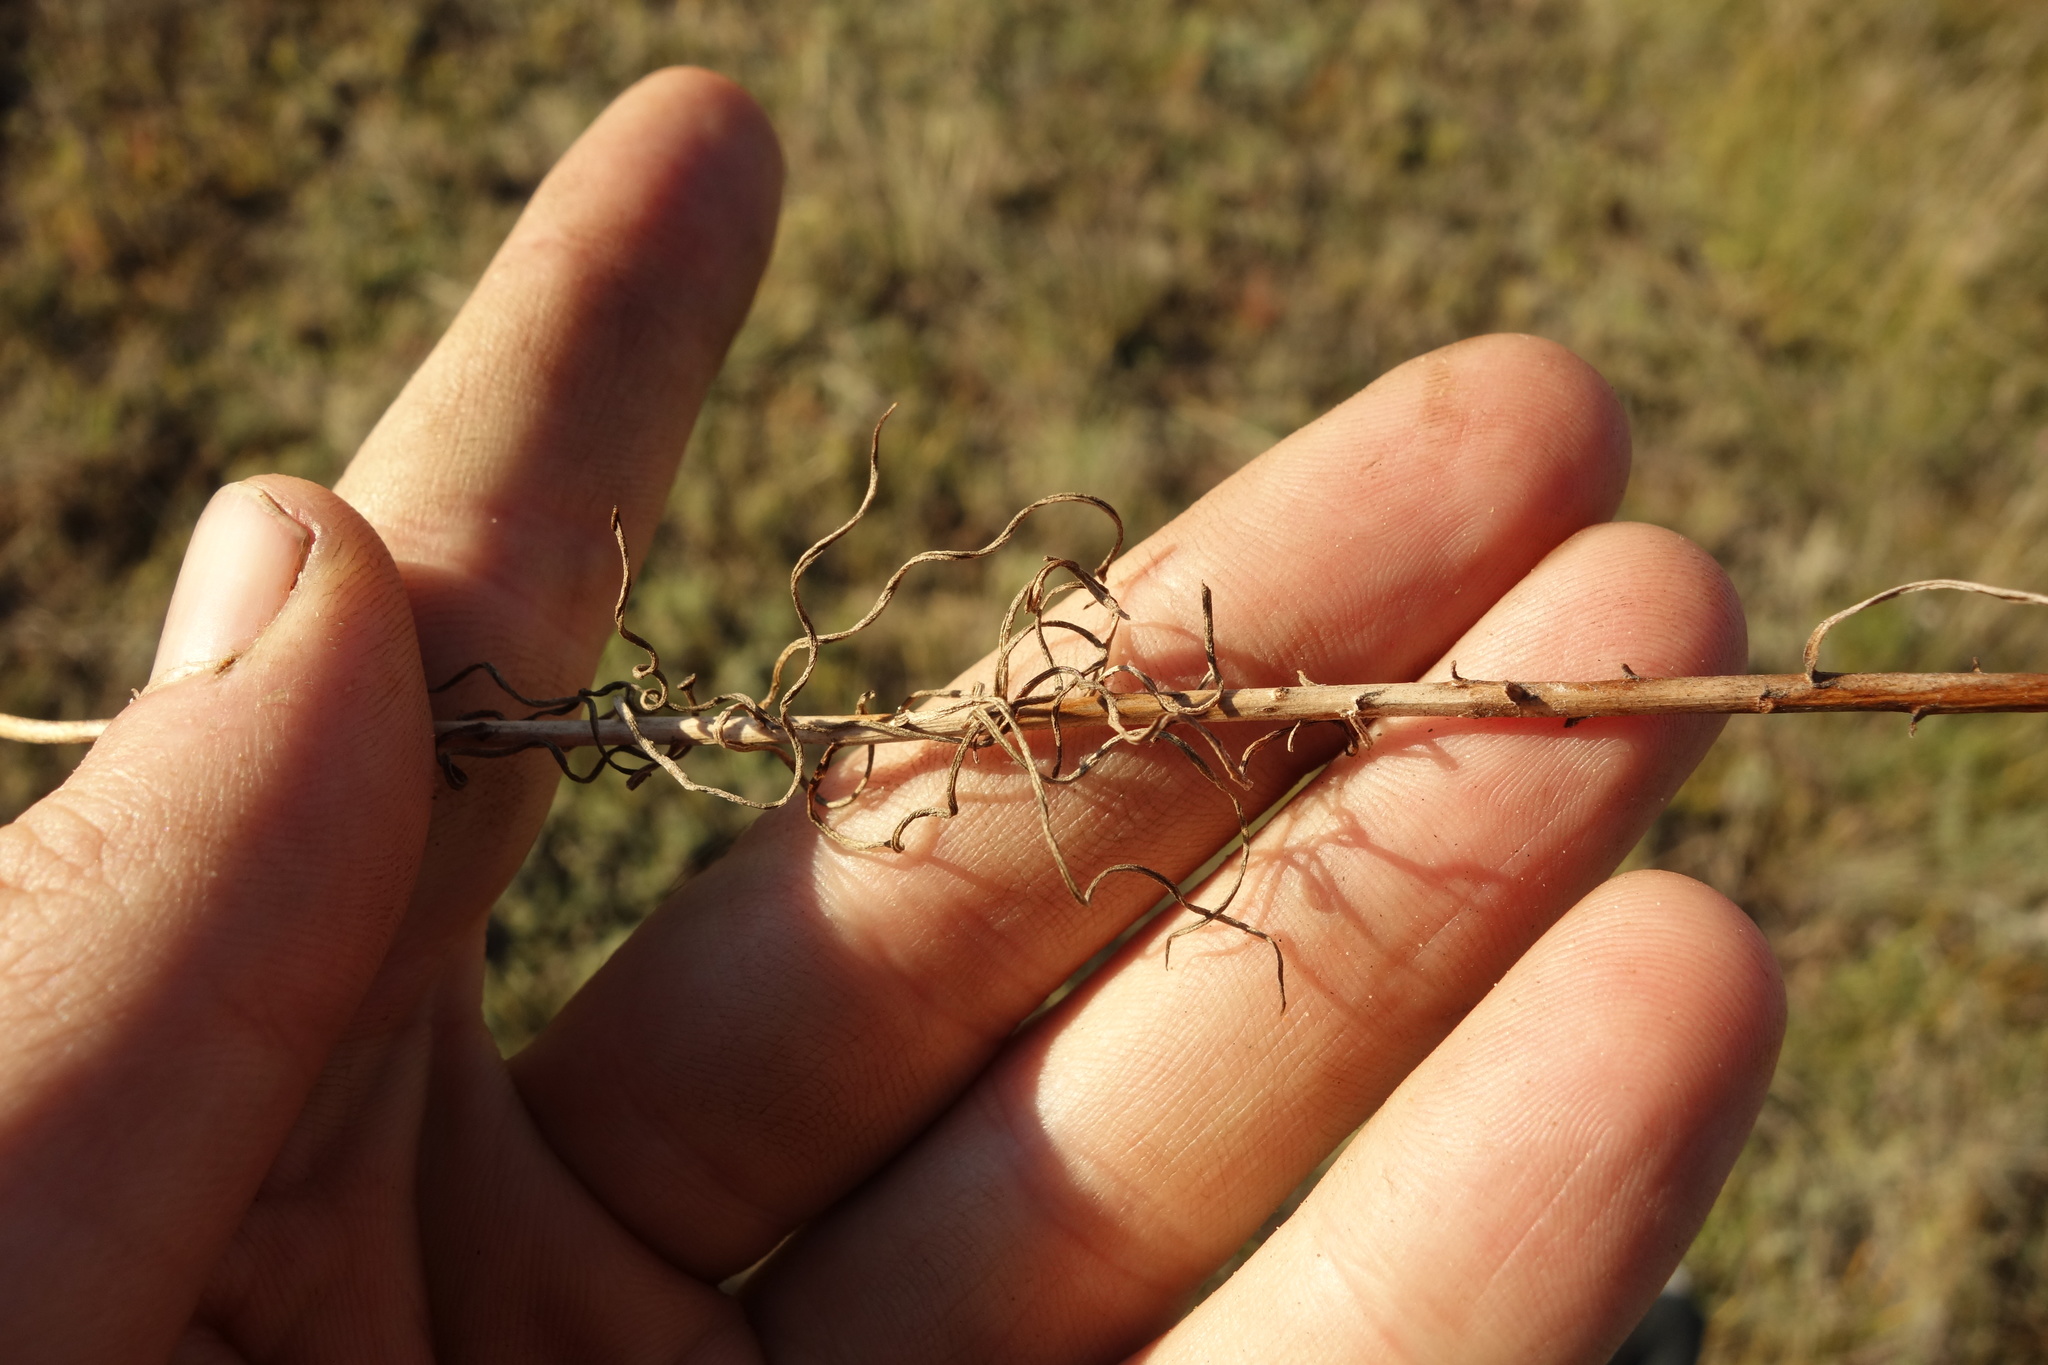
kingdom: Plantae
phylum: Tracheophyta
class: Liliopsida
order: Liliales
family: Liliaceae
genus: Lilium
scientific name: Lilium pumilum
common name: Coral lily
